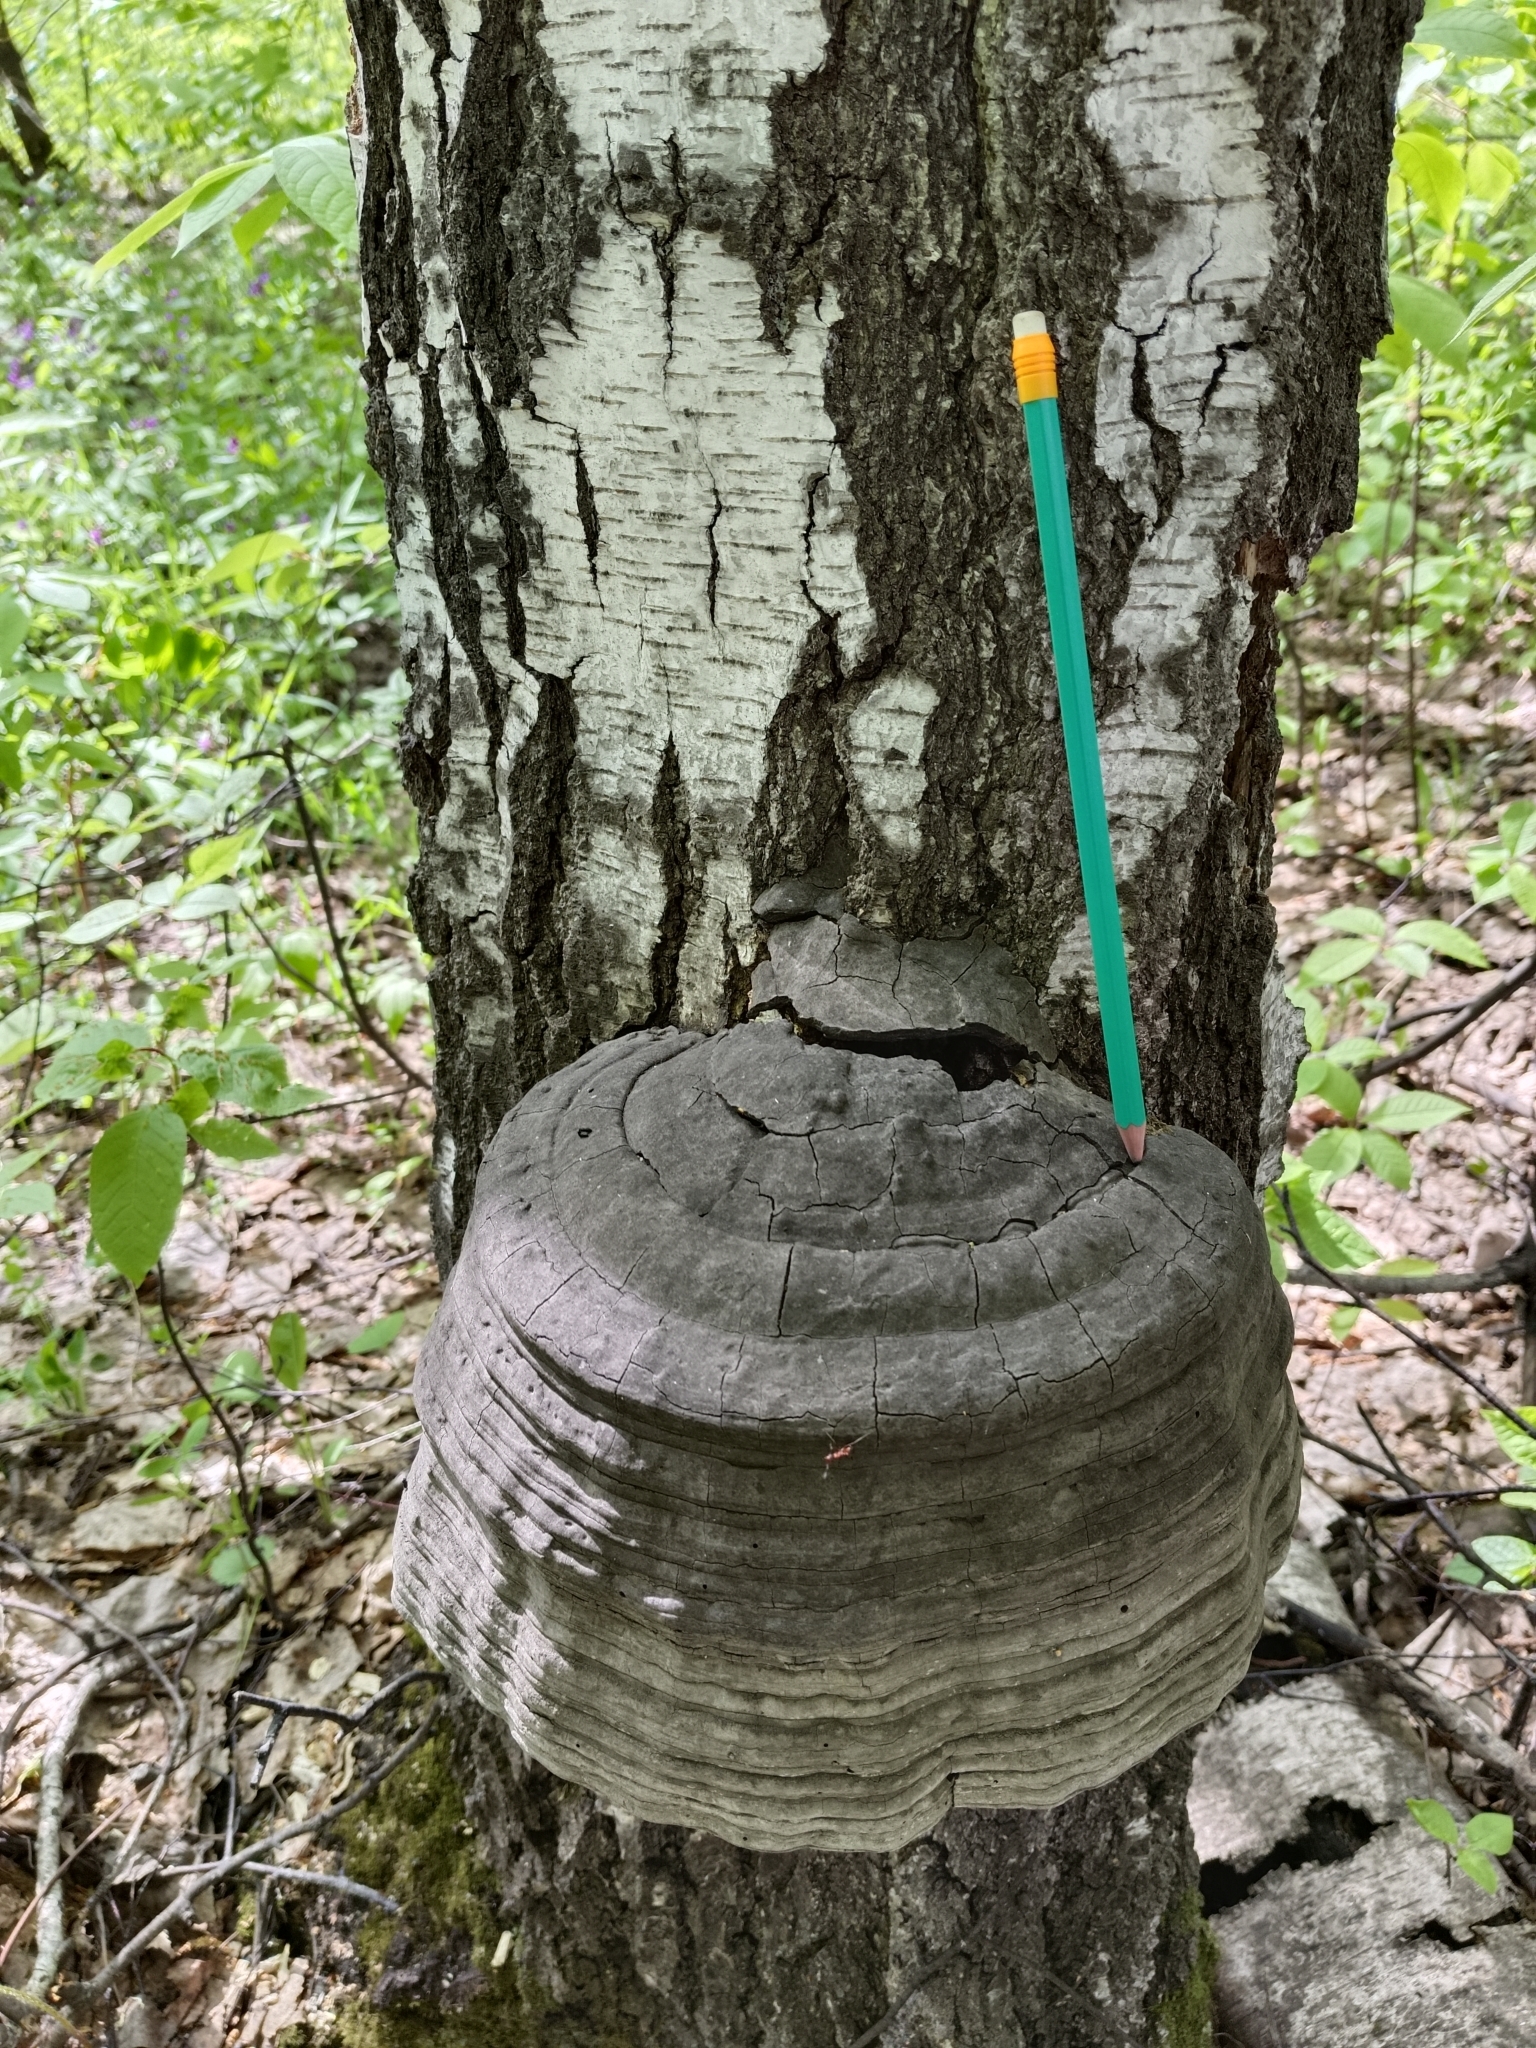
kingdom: Fungi
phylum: Basidiomycota
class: Agaricomycetes
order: Polyporales
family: Polyporaceae
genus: Fomes
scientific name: Fomes fomentarius
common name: Hoof fungus
